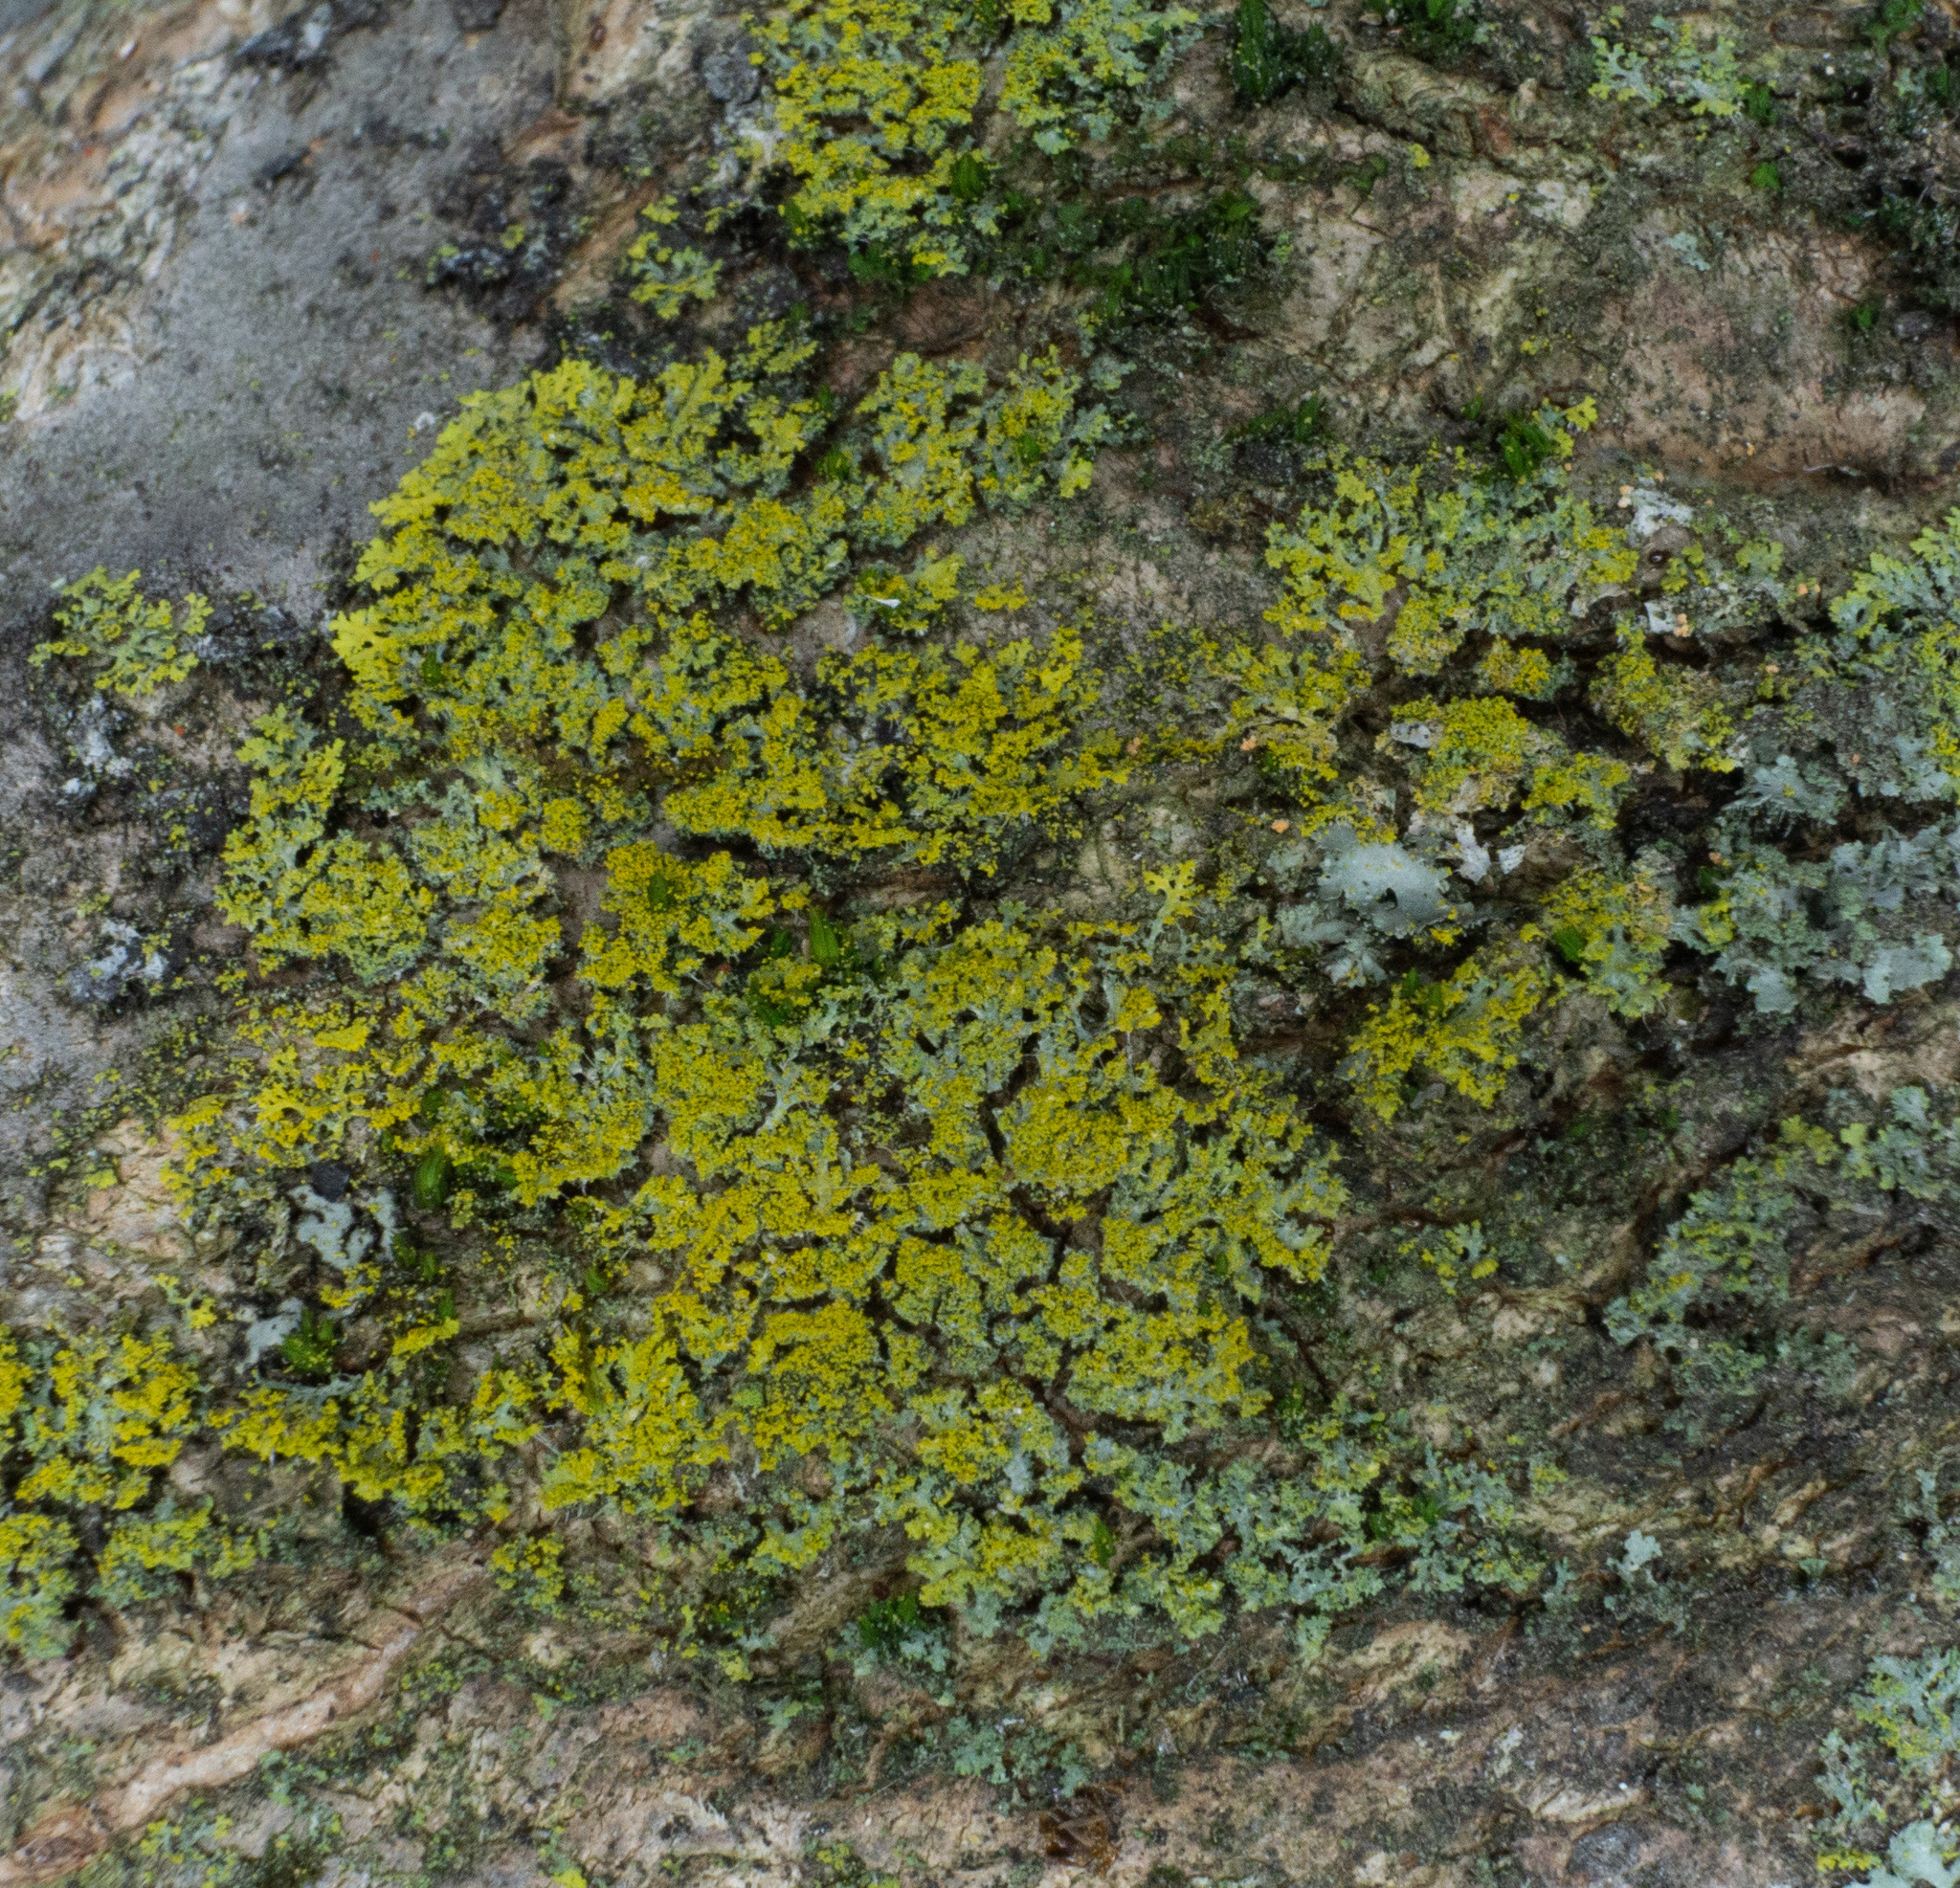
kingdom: Fungi
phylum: Ascomycota
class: Candelariomycetes
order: Candelariales
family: Candelariaceae
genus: Candelaria
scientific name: Candelaria concolor
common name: Candleflame lichen
